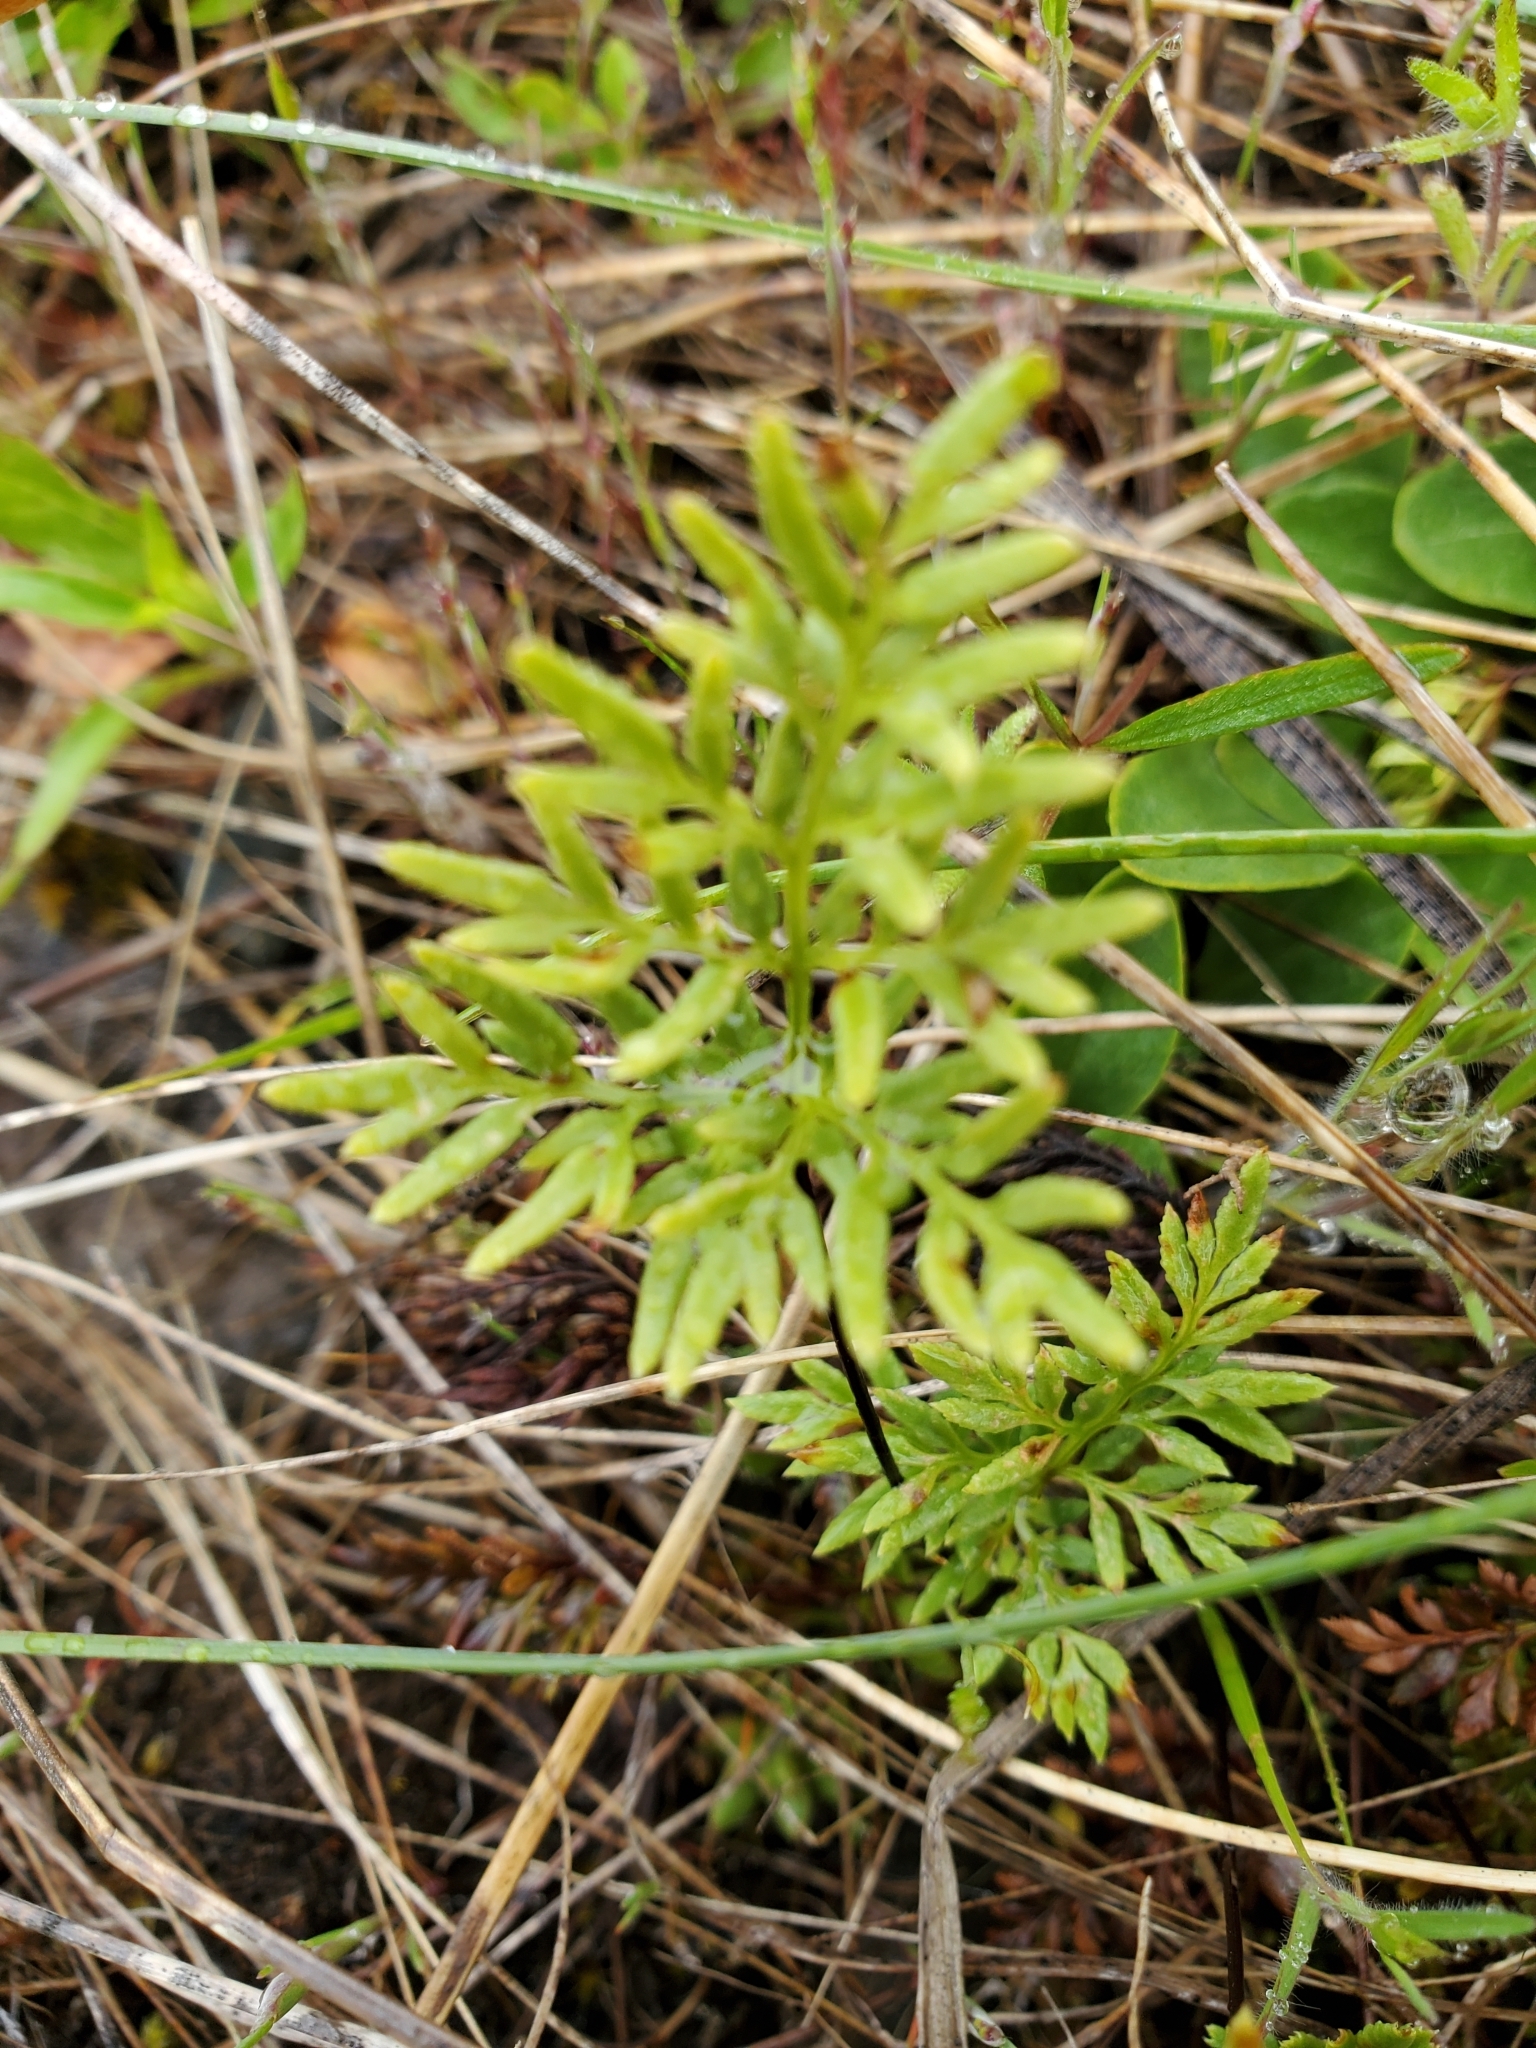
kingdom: Plantae
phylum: Tracheophyta
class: Polypodiopsida
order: Polypodiales
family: Pteridaceae
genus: Aspidotis
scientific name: Aspidotis densa
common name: Indian's dream
